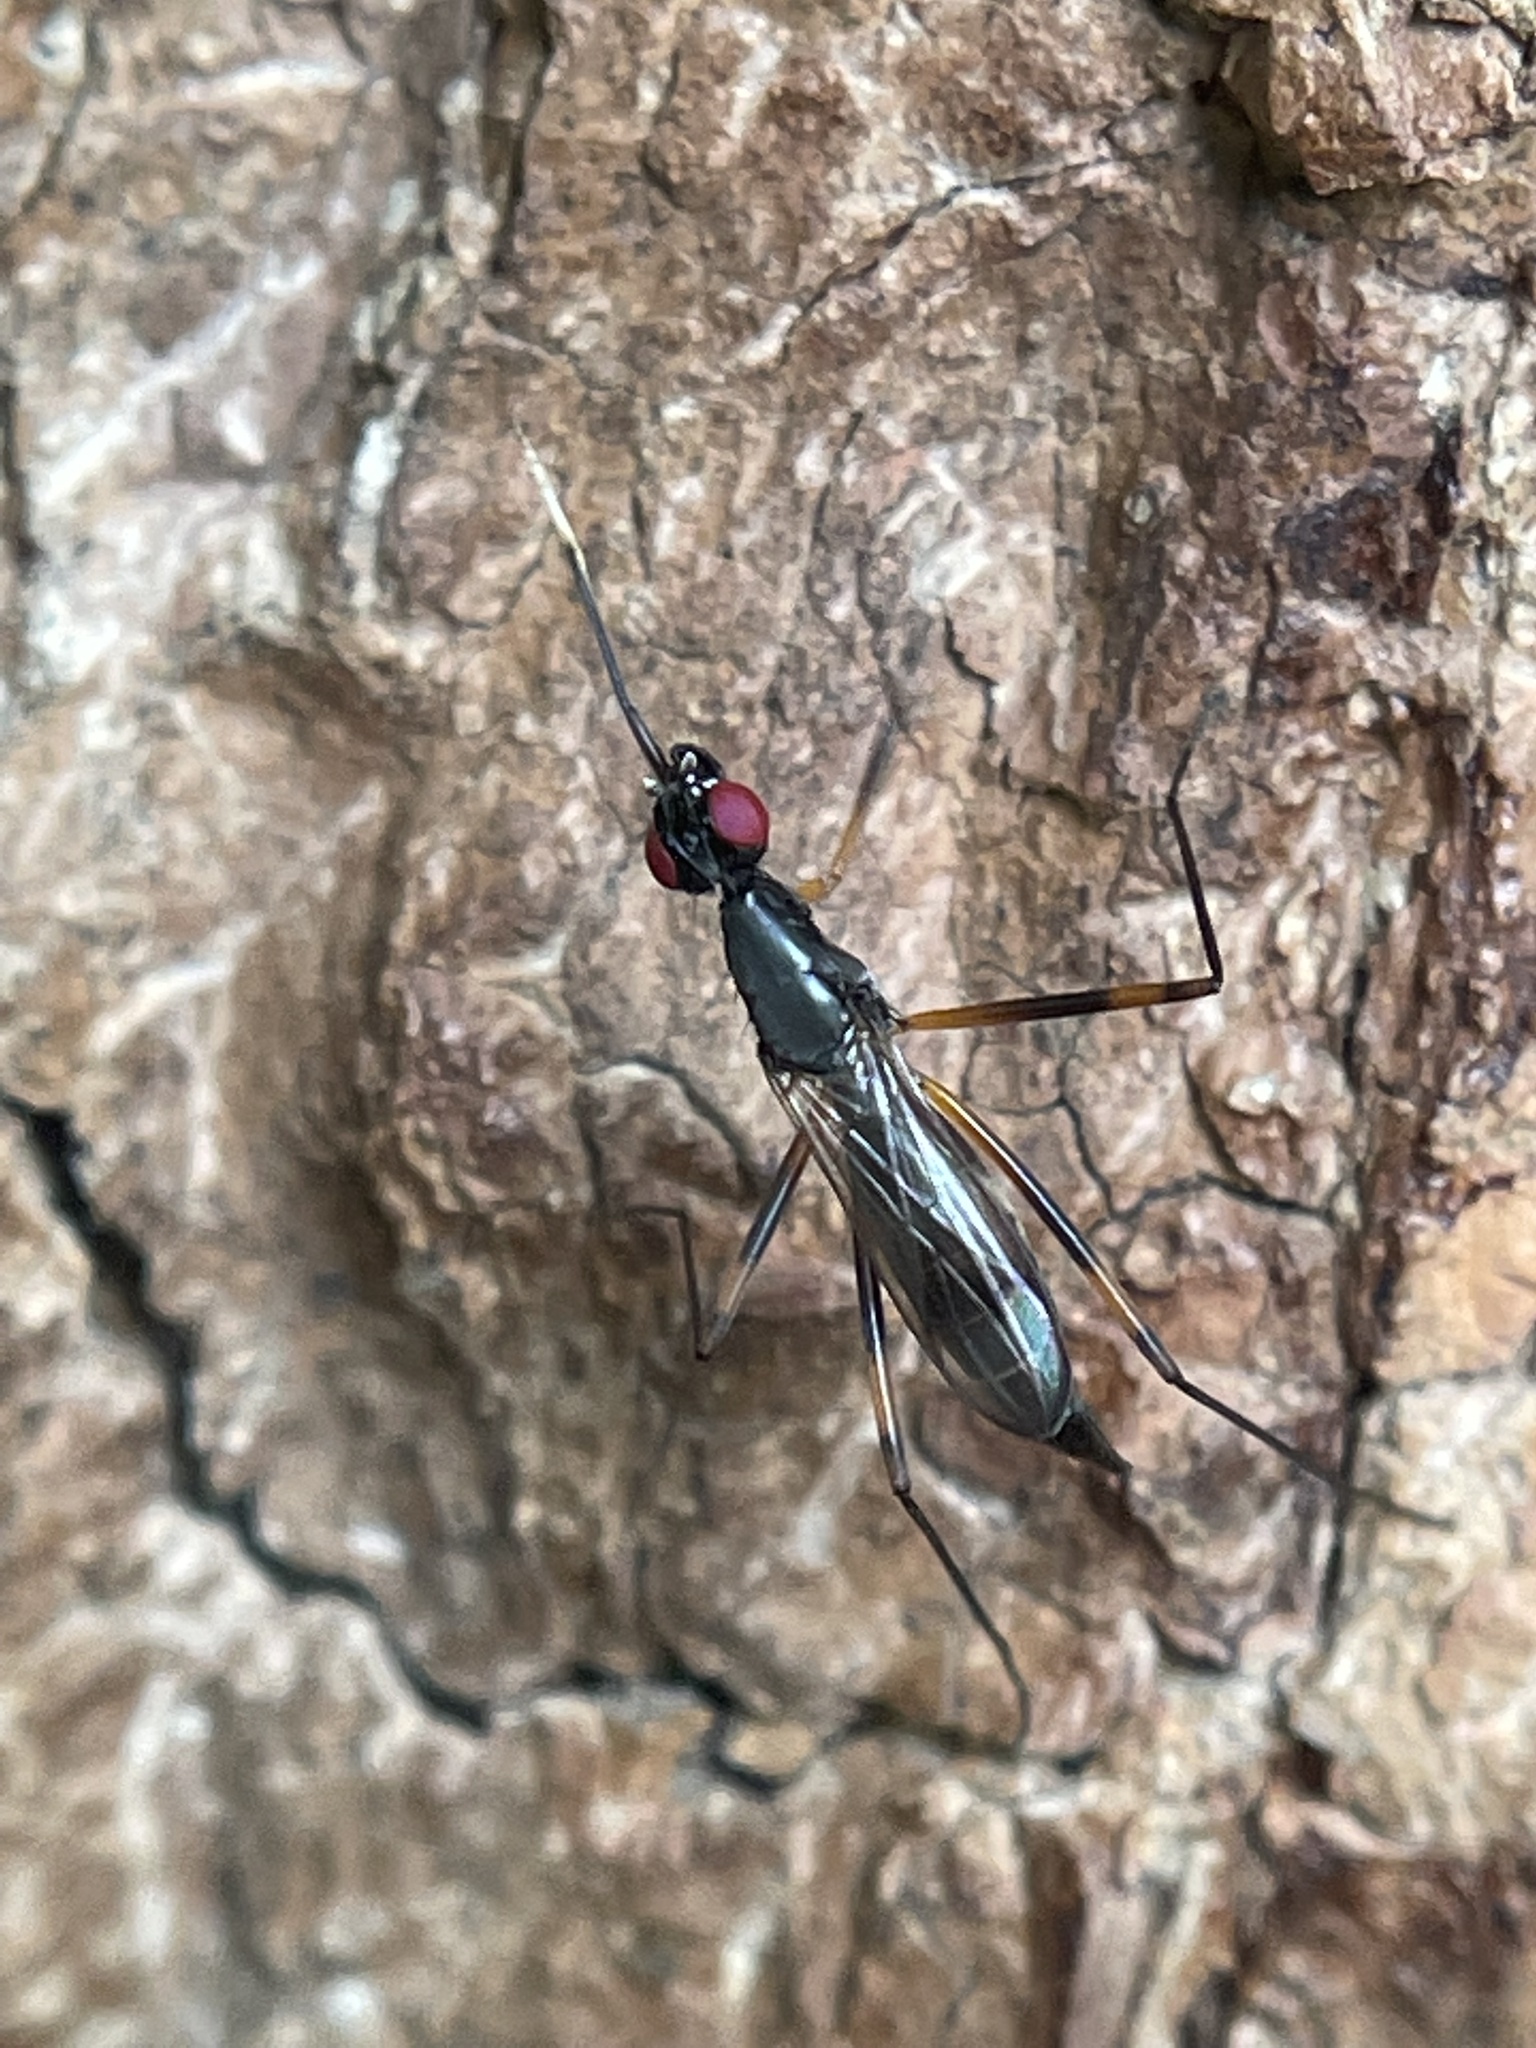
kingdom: Animalia
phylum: Arthropoda
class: Insecta
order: Diptera
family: Micropezidae
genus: Rainieria
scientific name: Rainieria antennaepes
